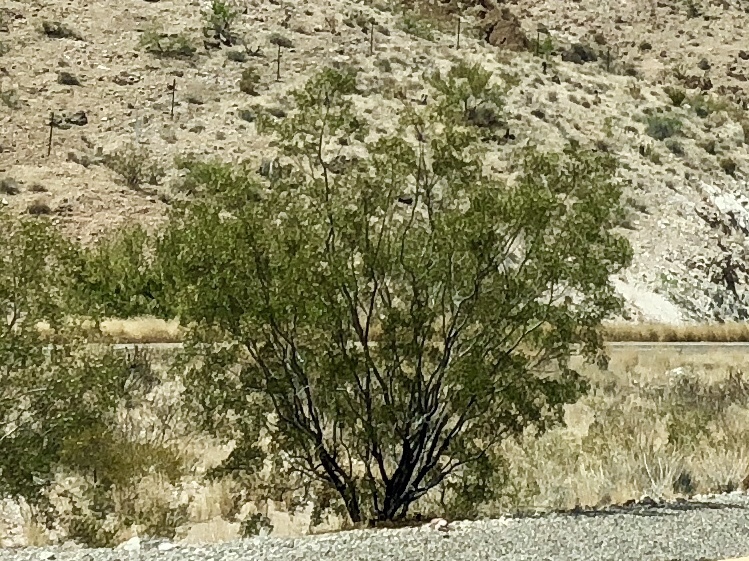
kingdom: Plantae
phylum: Tracheophyta
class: Magnoliopsida
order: Zygophyllales
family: Zygophyllaceae
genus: Larrea
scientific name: Larrea tridentata
